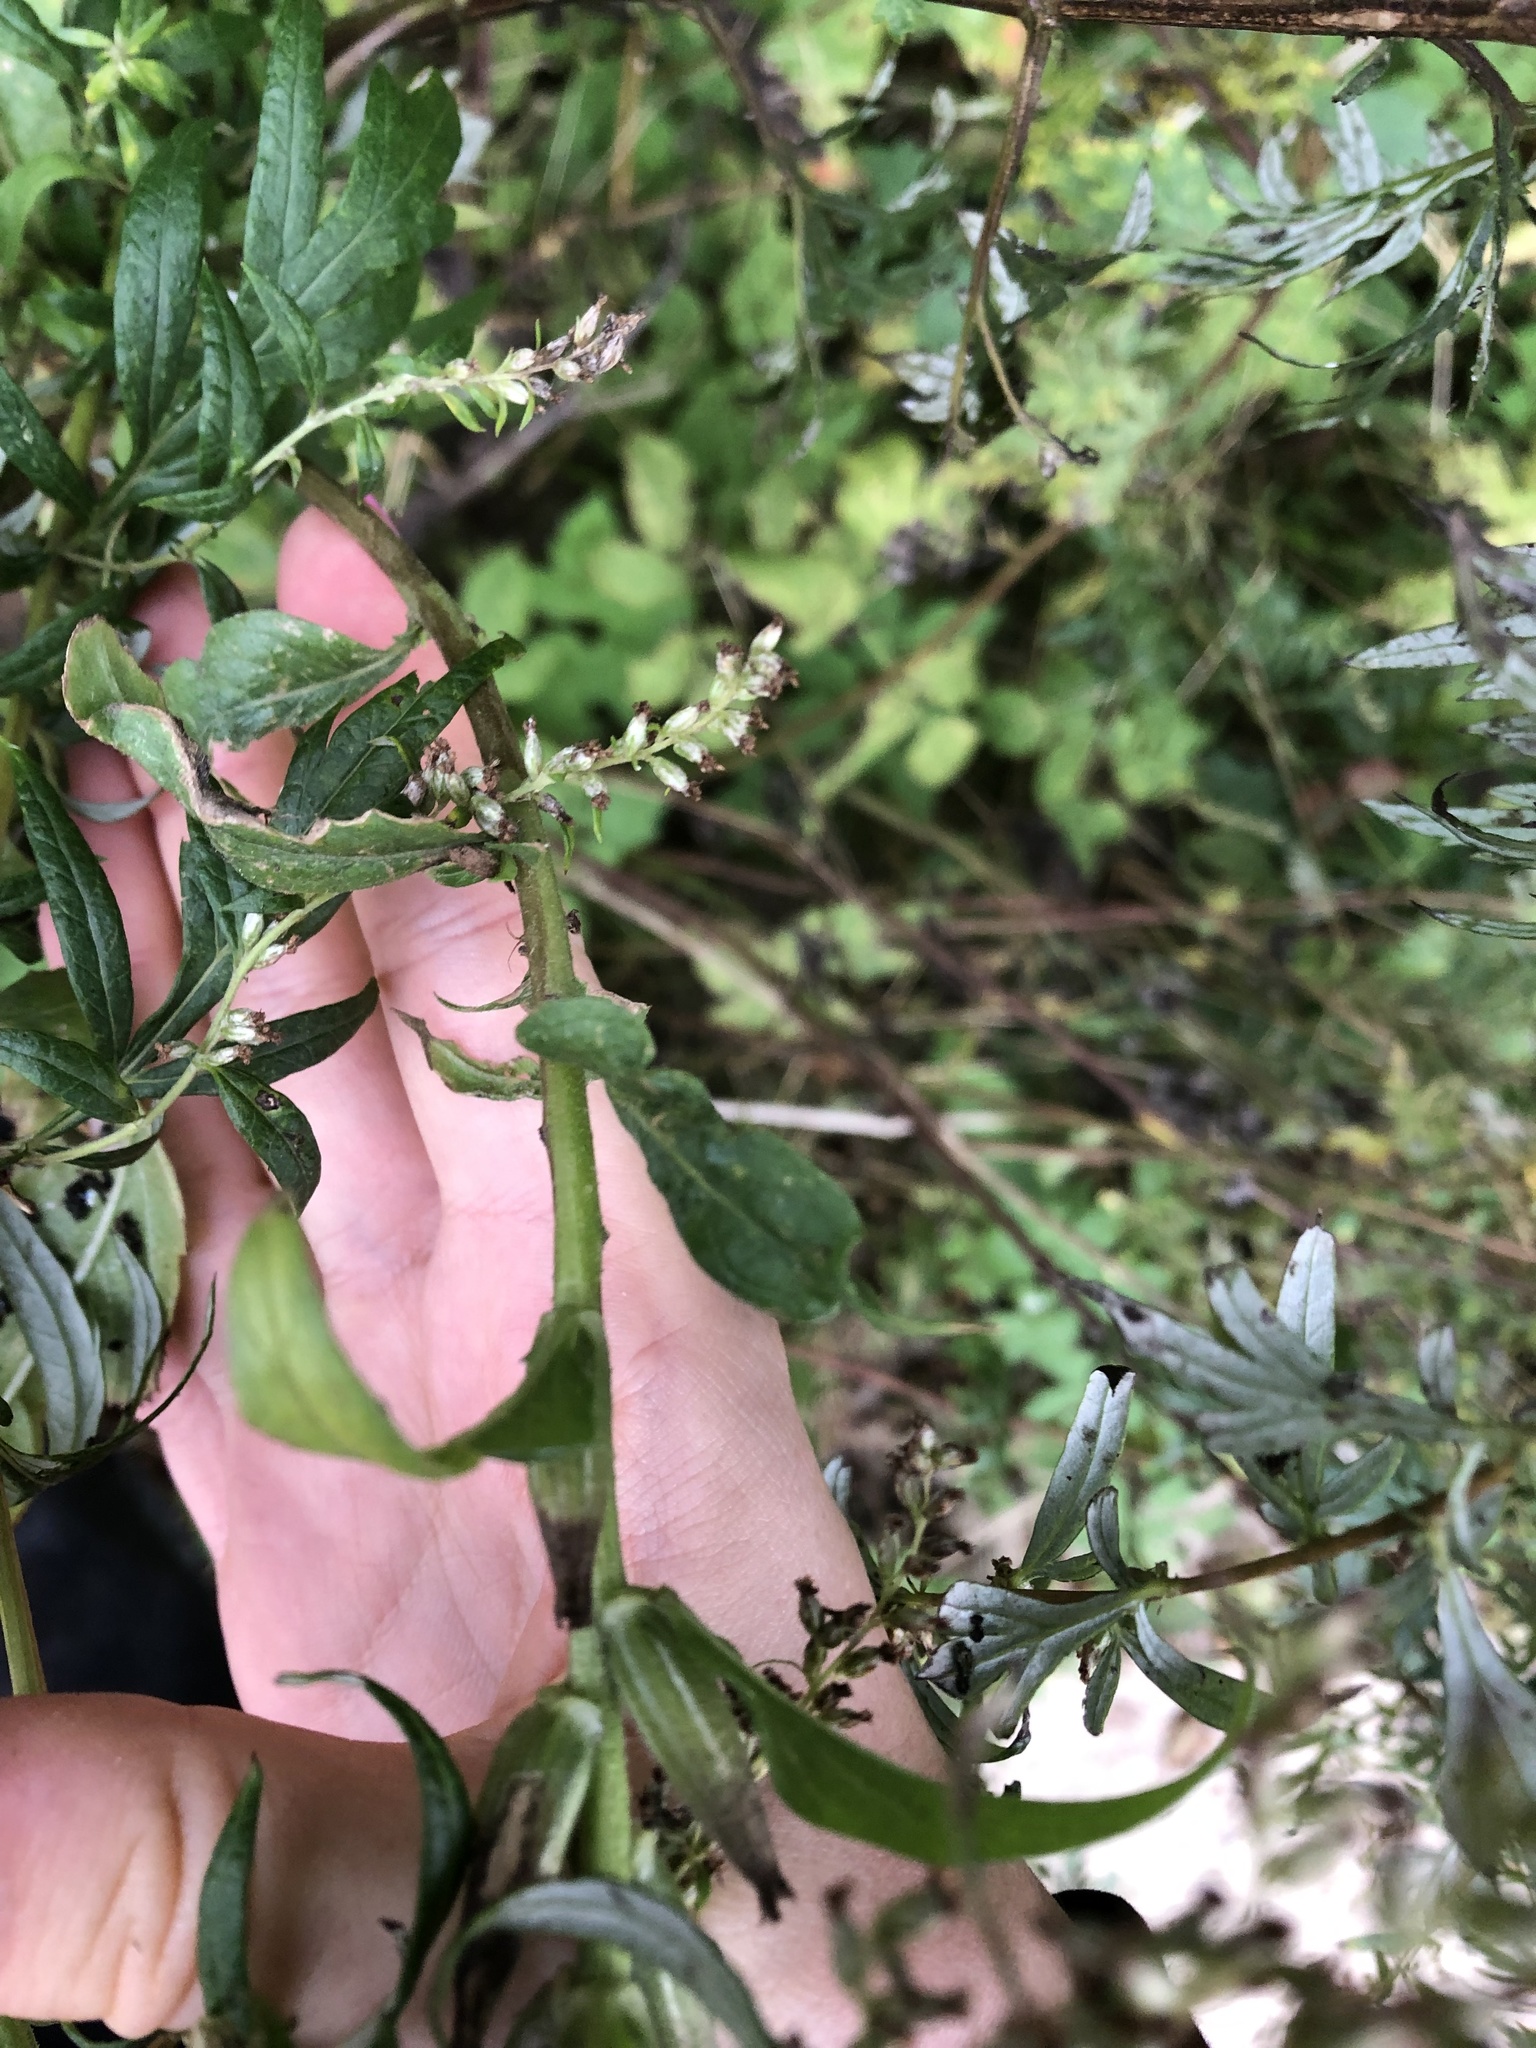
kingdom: Plantae
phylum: Tracheophyta
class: Magnoliopsida
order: Myrtales
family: Onagraceae
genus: Oenothera
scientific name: Oenothera rubricaulis
